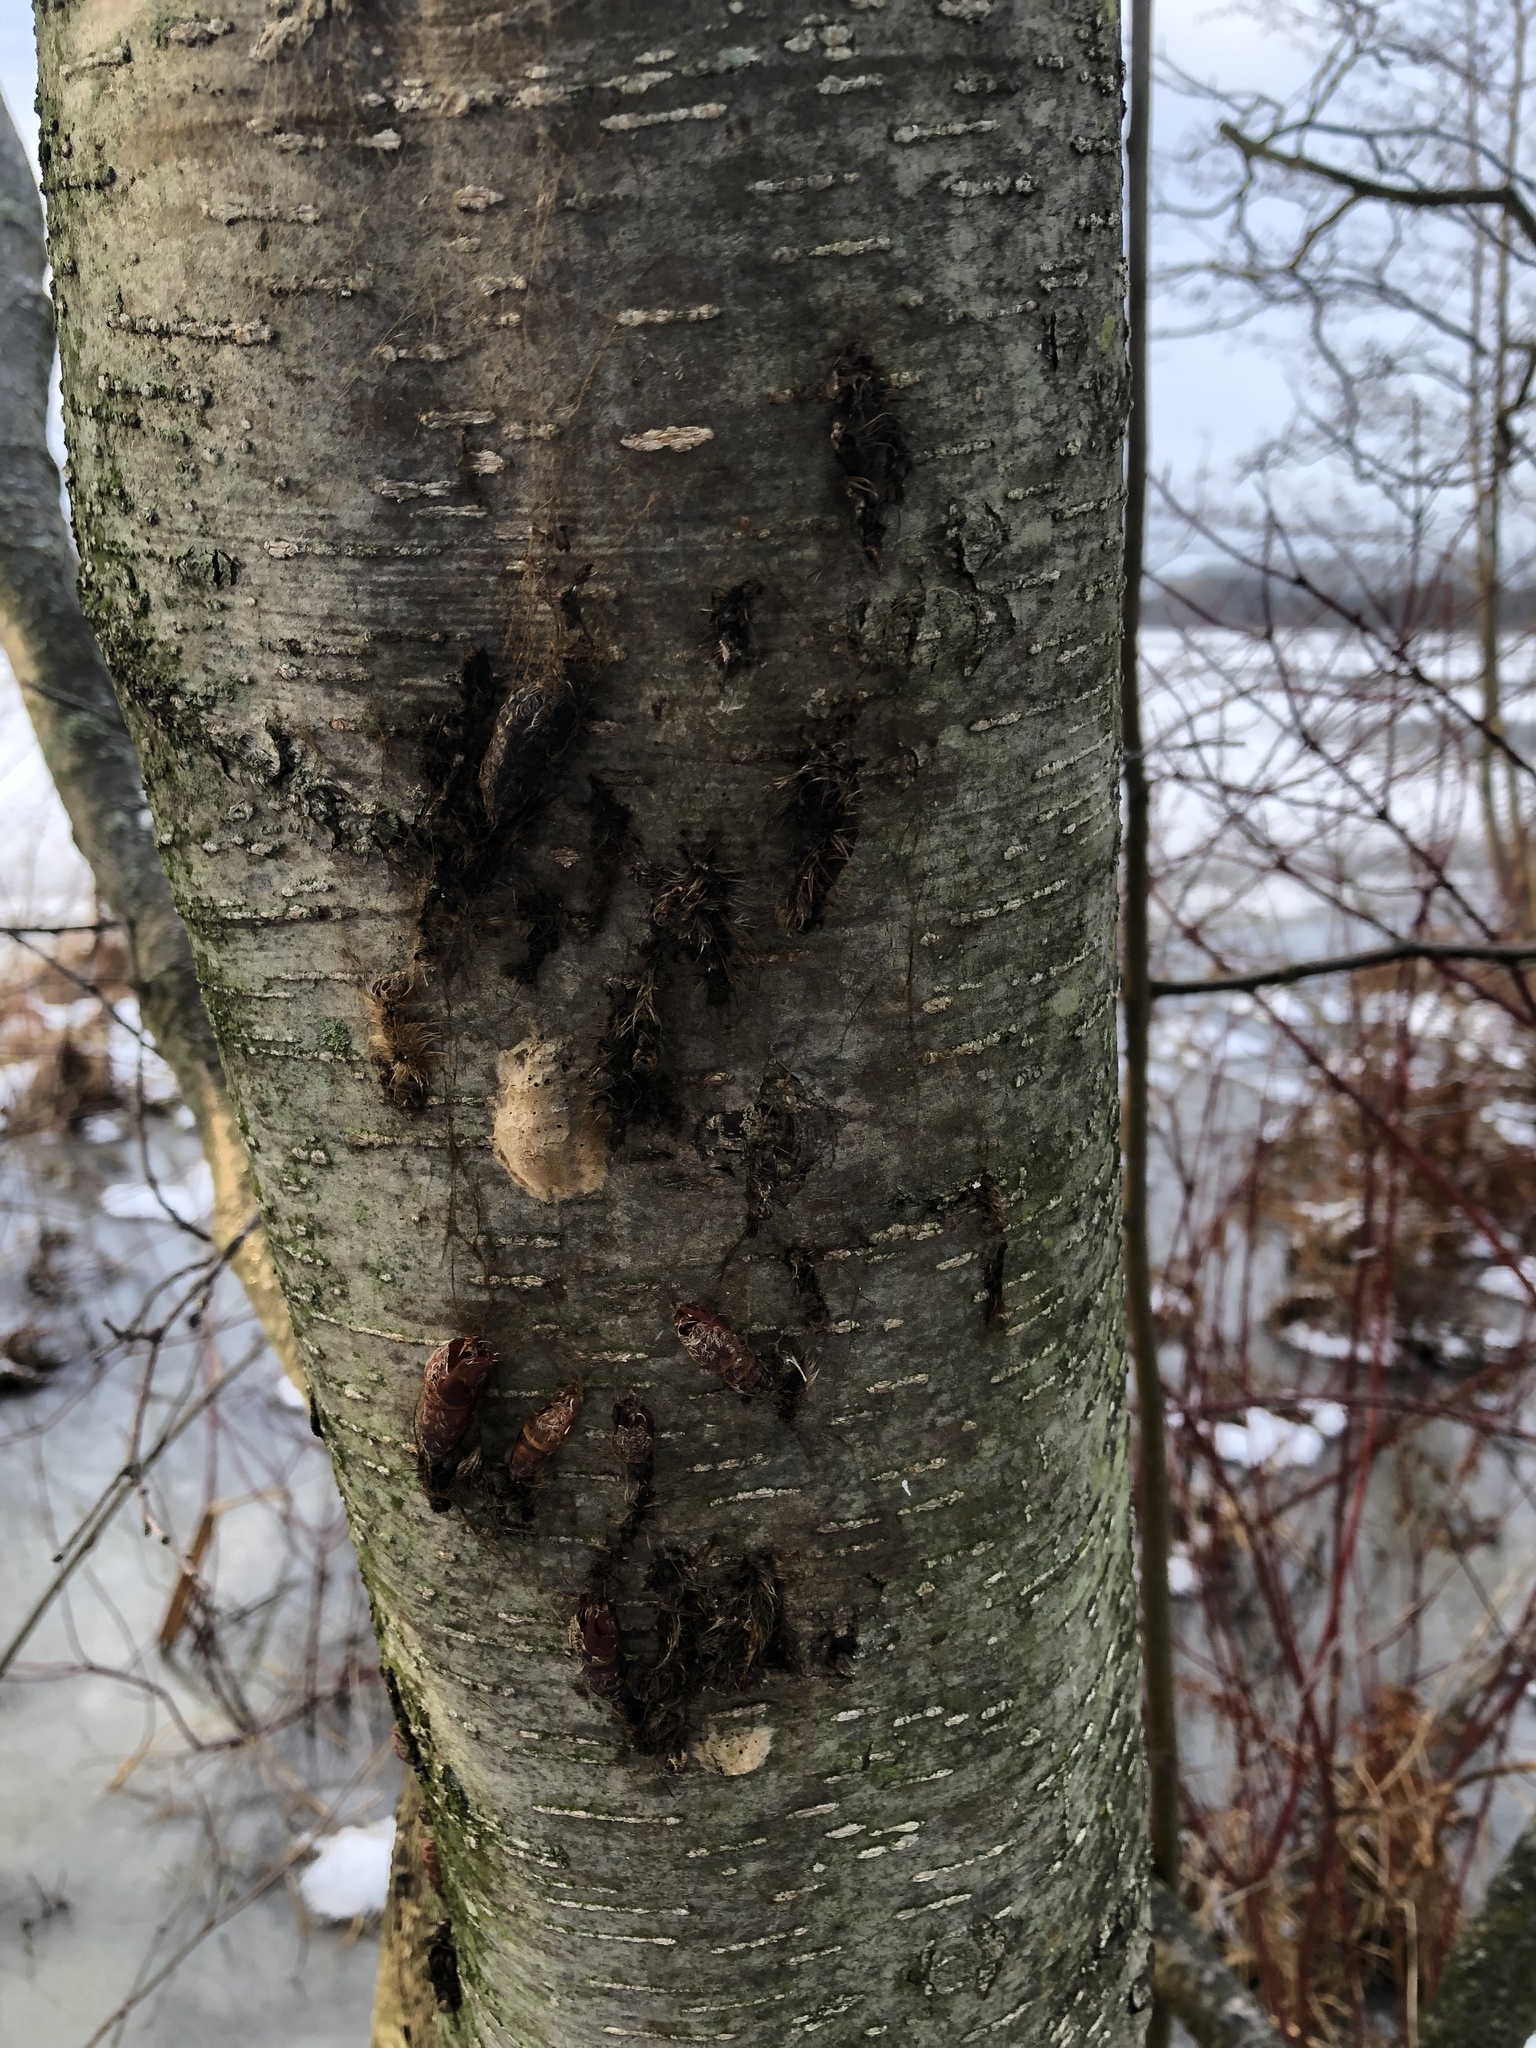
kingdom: Animalia
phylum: Arthropoda
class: Insecta
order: Lepidoptera
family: Erebidae
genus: Lymantria
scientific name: Lymantria dispar
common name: Gypsy moth
